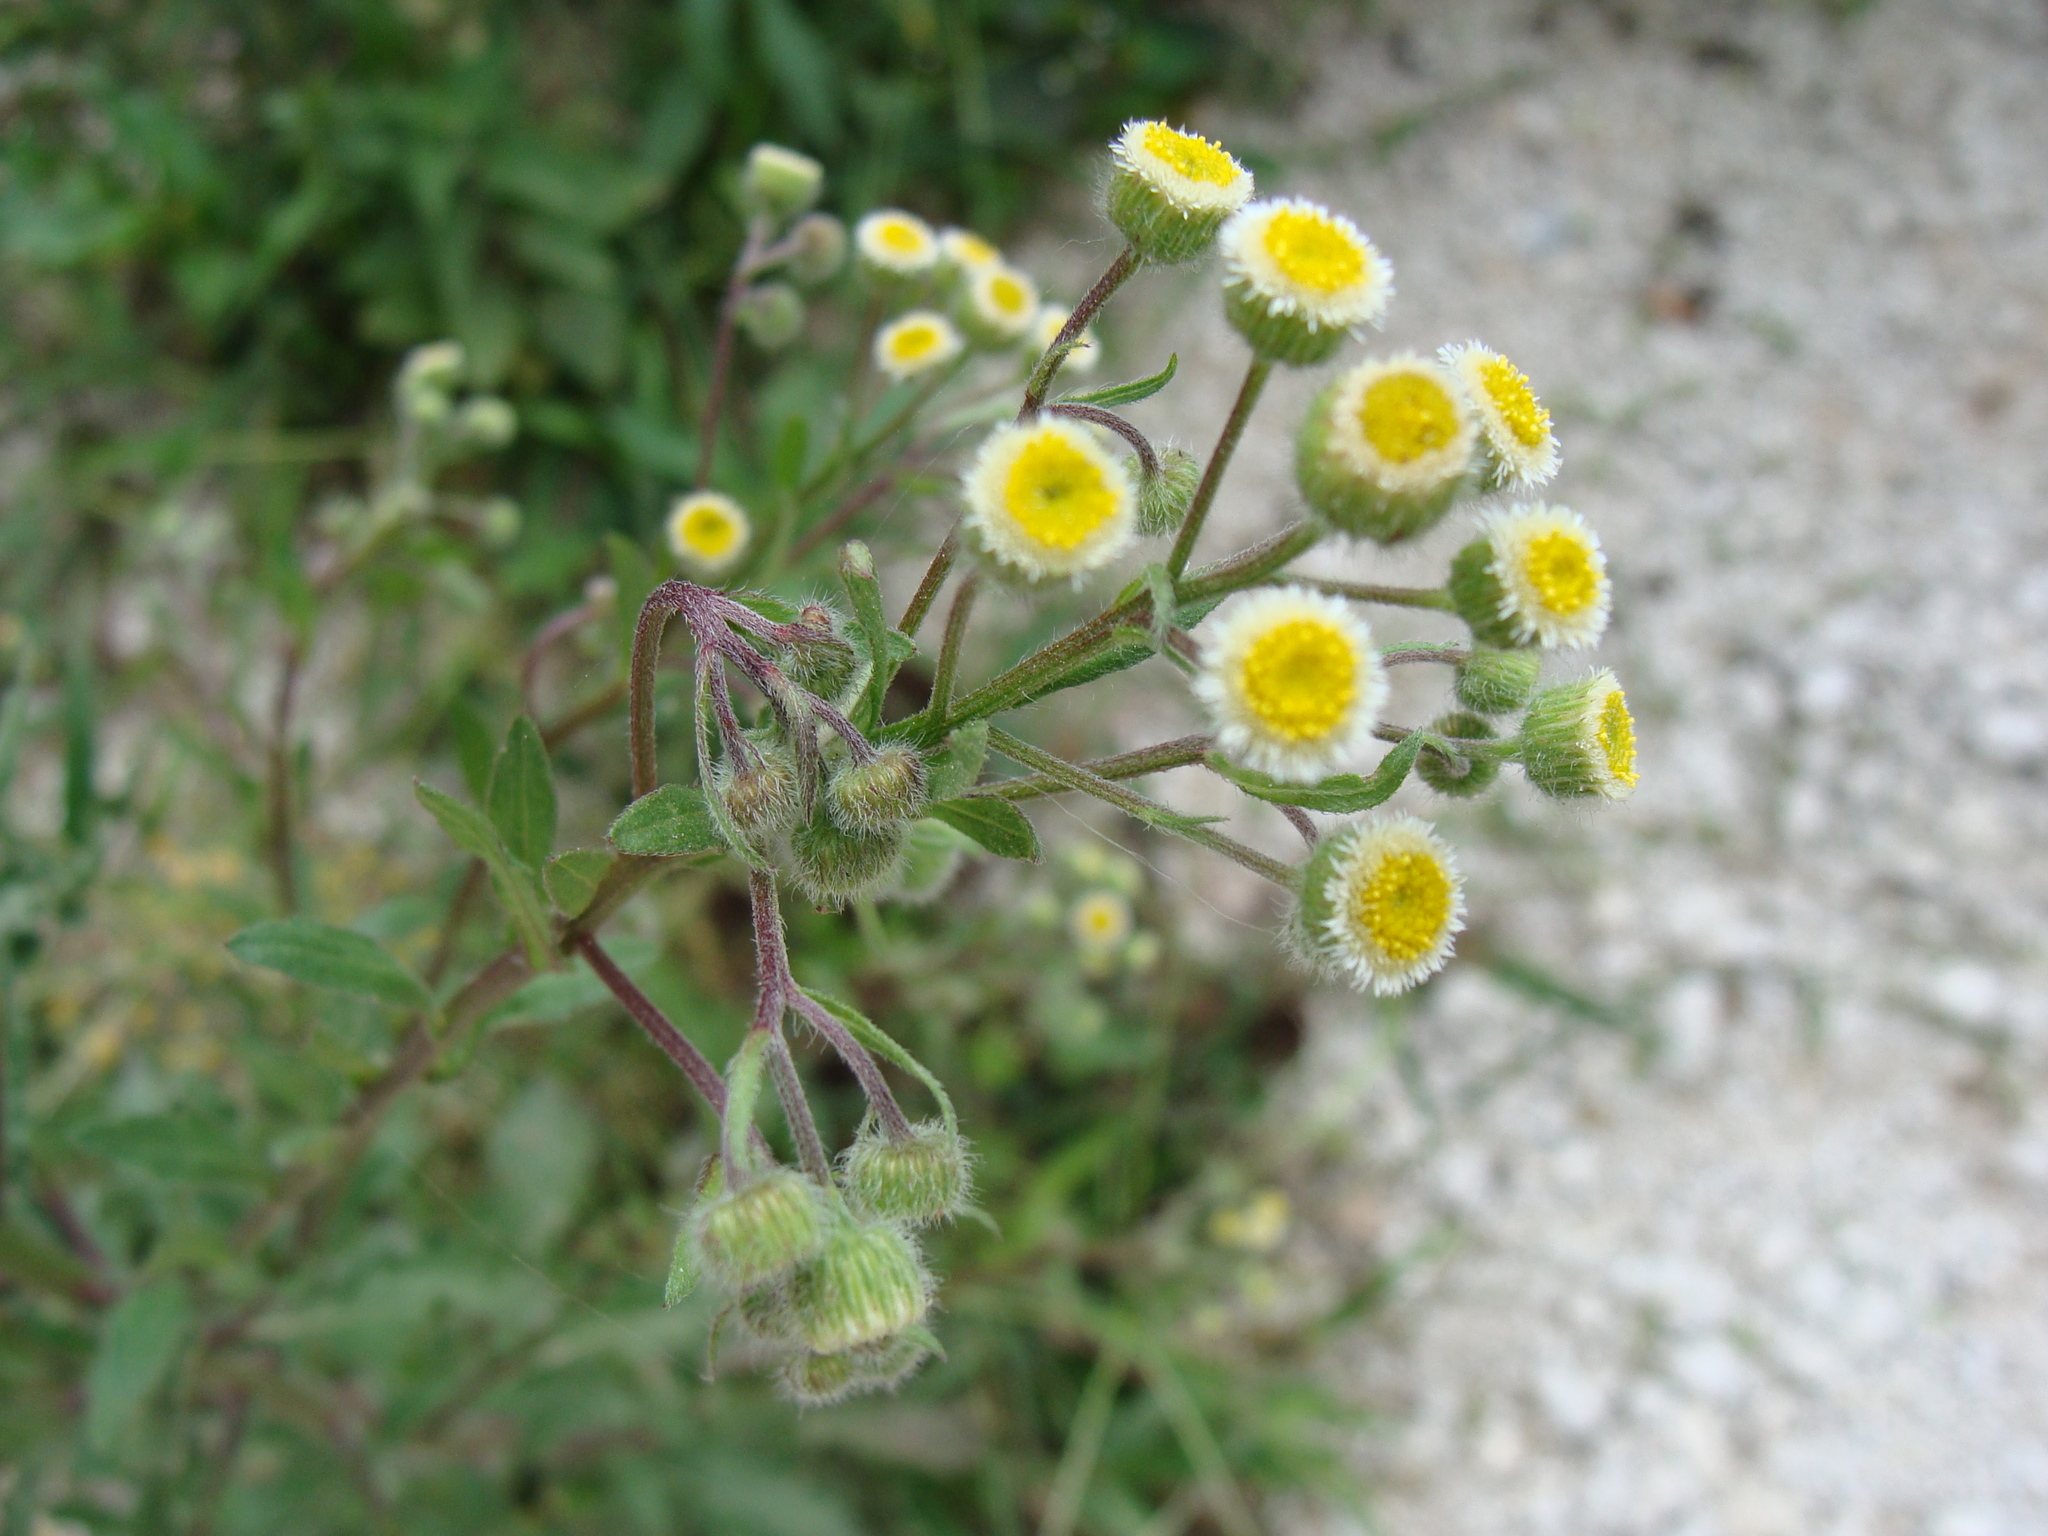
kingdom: Plantae
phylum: Tracheophyta
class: Magnoliopsida
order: Asterales
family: Asteraceae
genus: Erigeron
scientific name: Erigeron laevigatus
